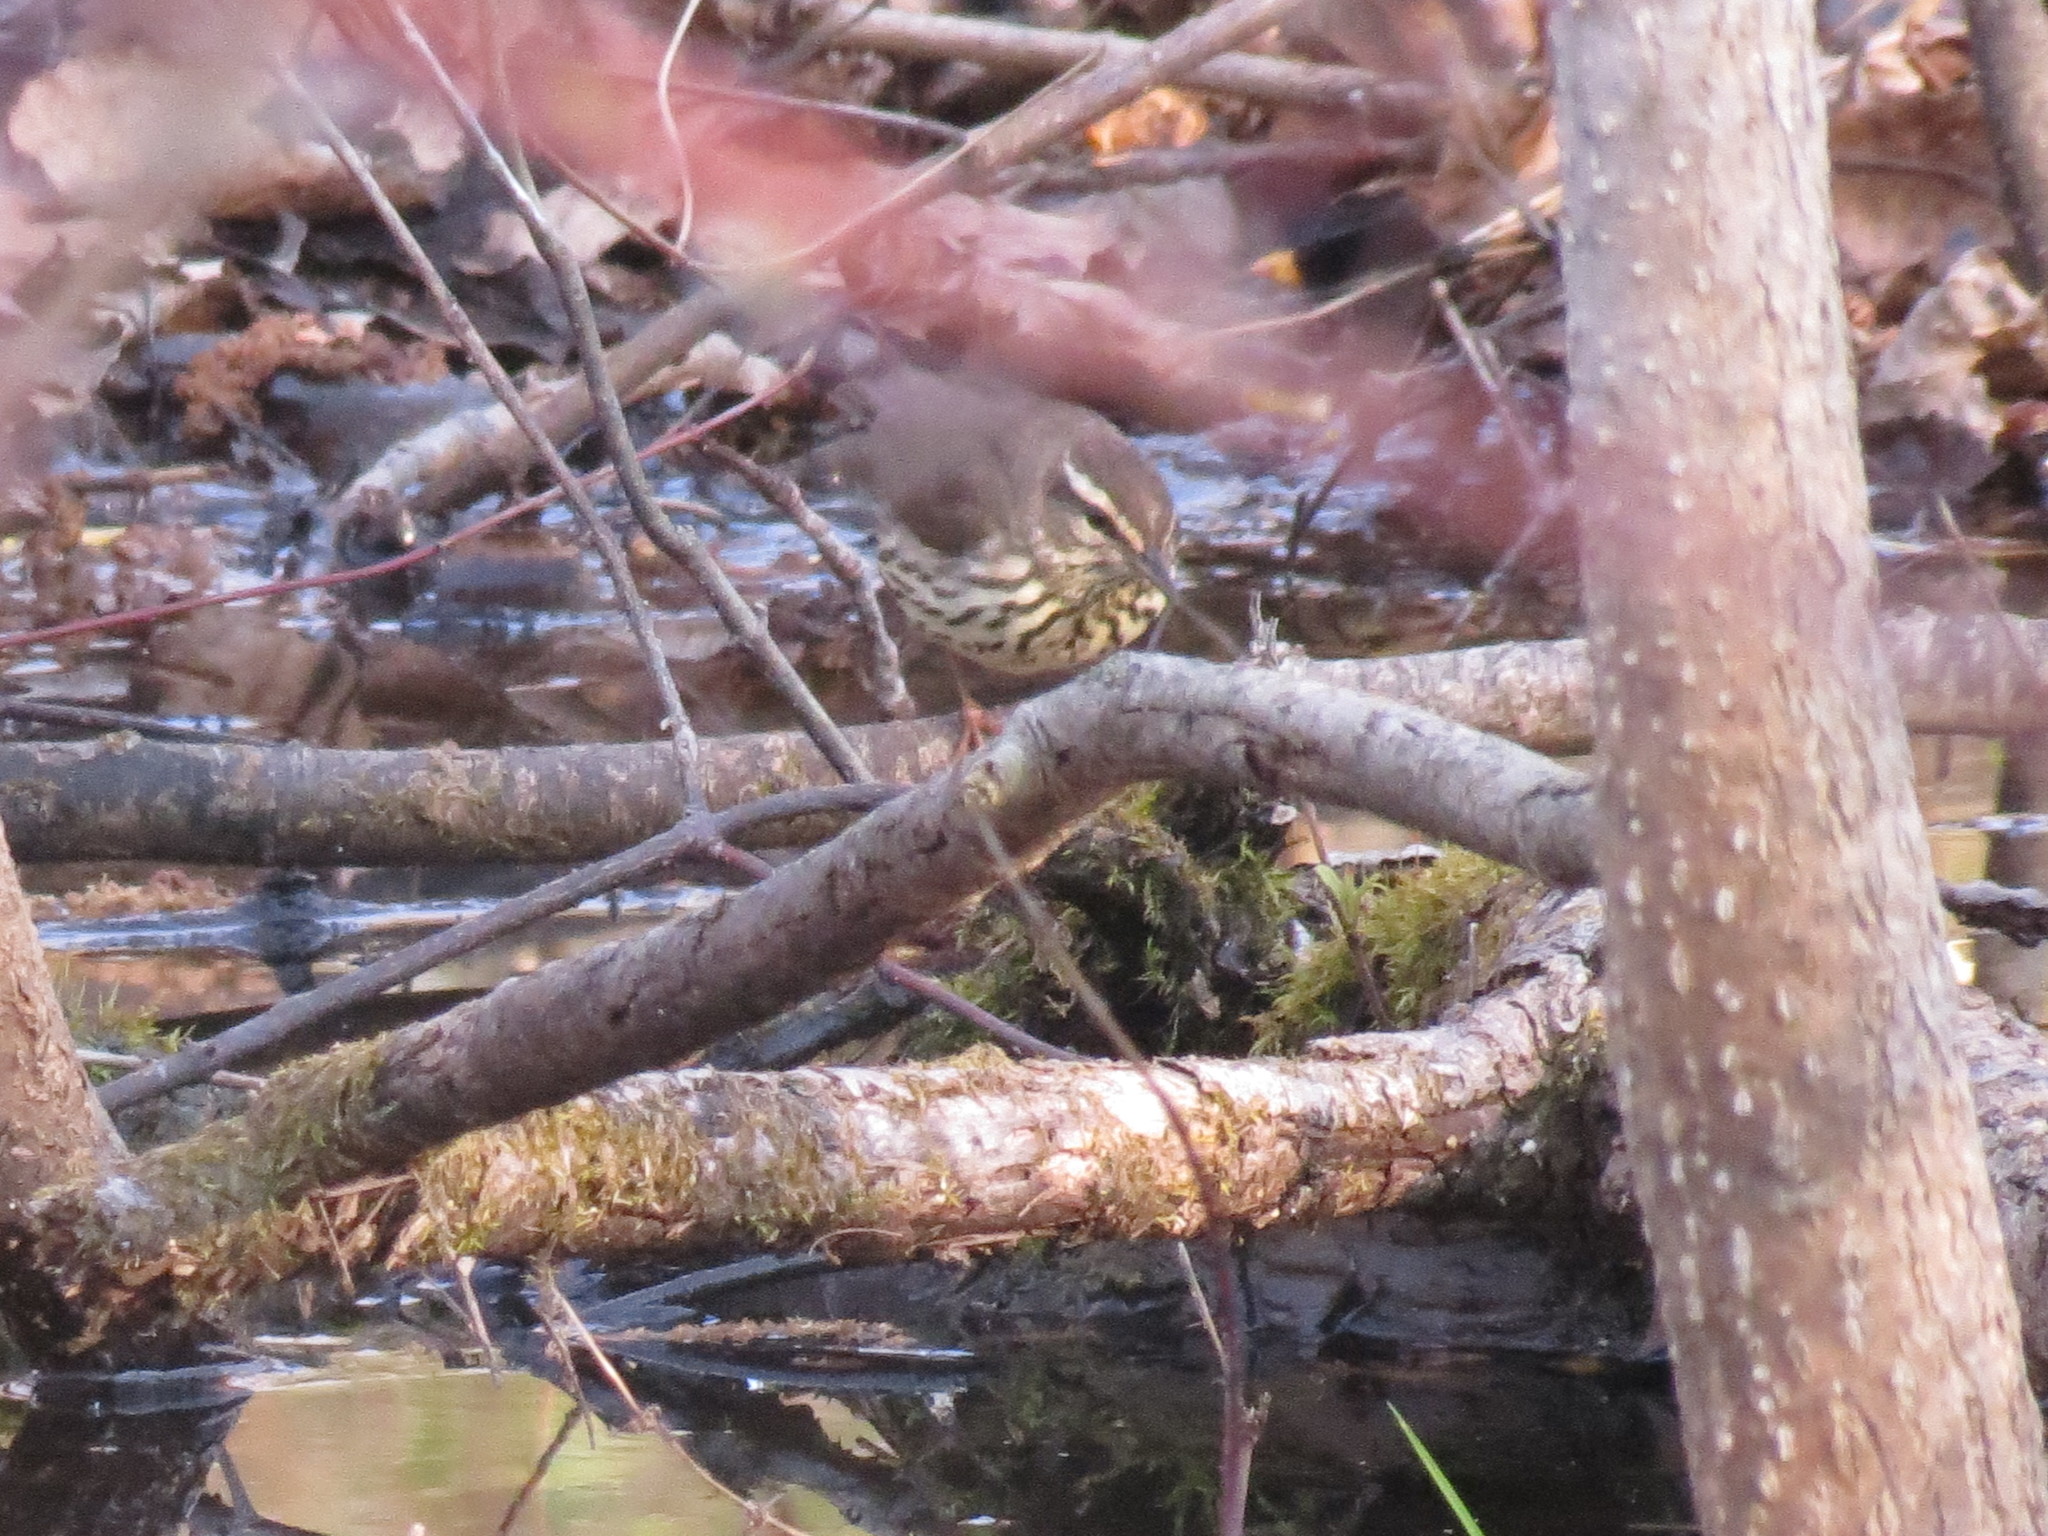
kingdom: Animalia
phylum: Chordata
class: Aves
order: Passeriformes
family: Parulidae
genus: Parkesia
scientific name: Parkesia noveboracensis
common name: Northern waterthrush
